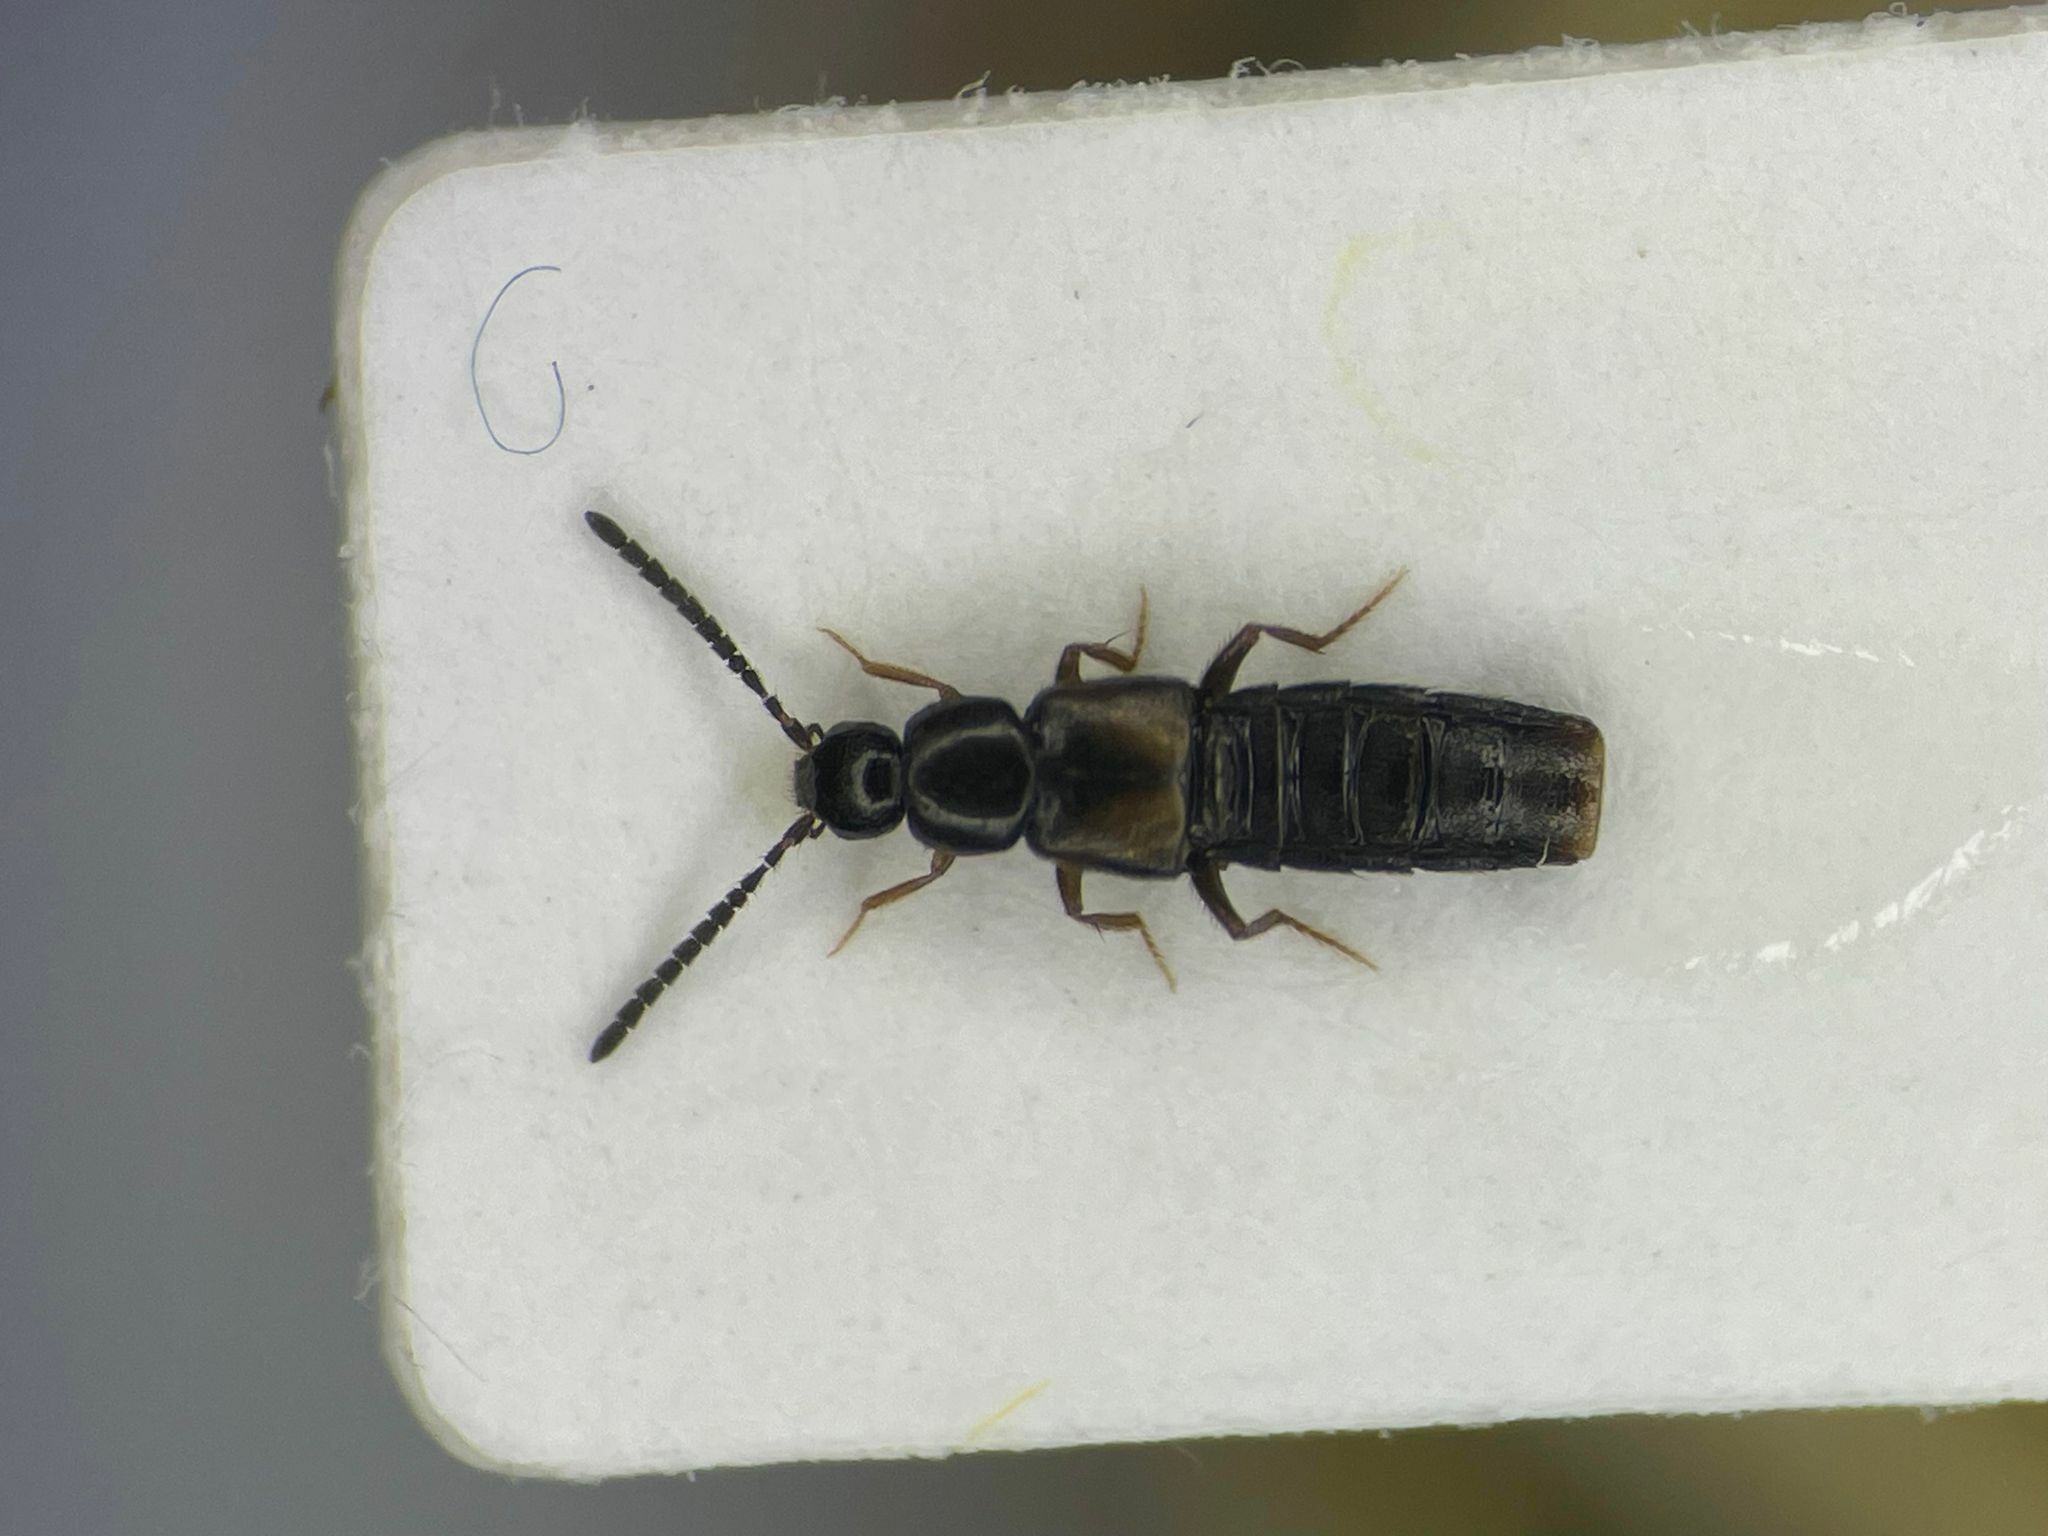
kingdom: Animalia
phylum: Arthropoda
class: Insecta
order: Coleoptera
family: Staphylinidae
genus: Atheta
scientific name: Atheta longicornis
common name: Rove beetle
